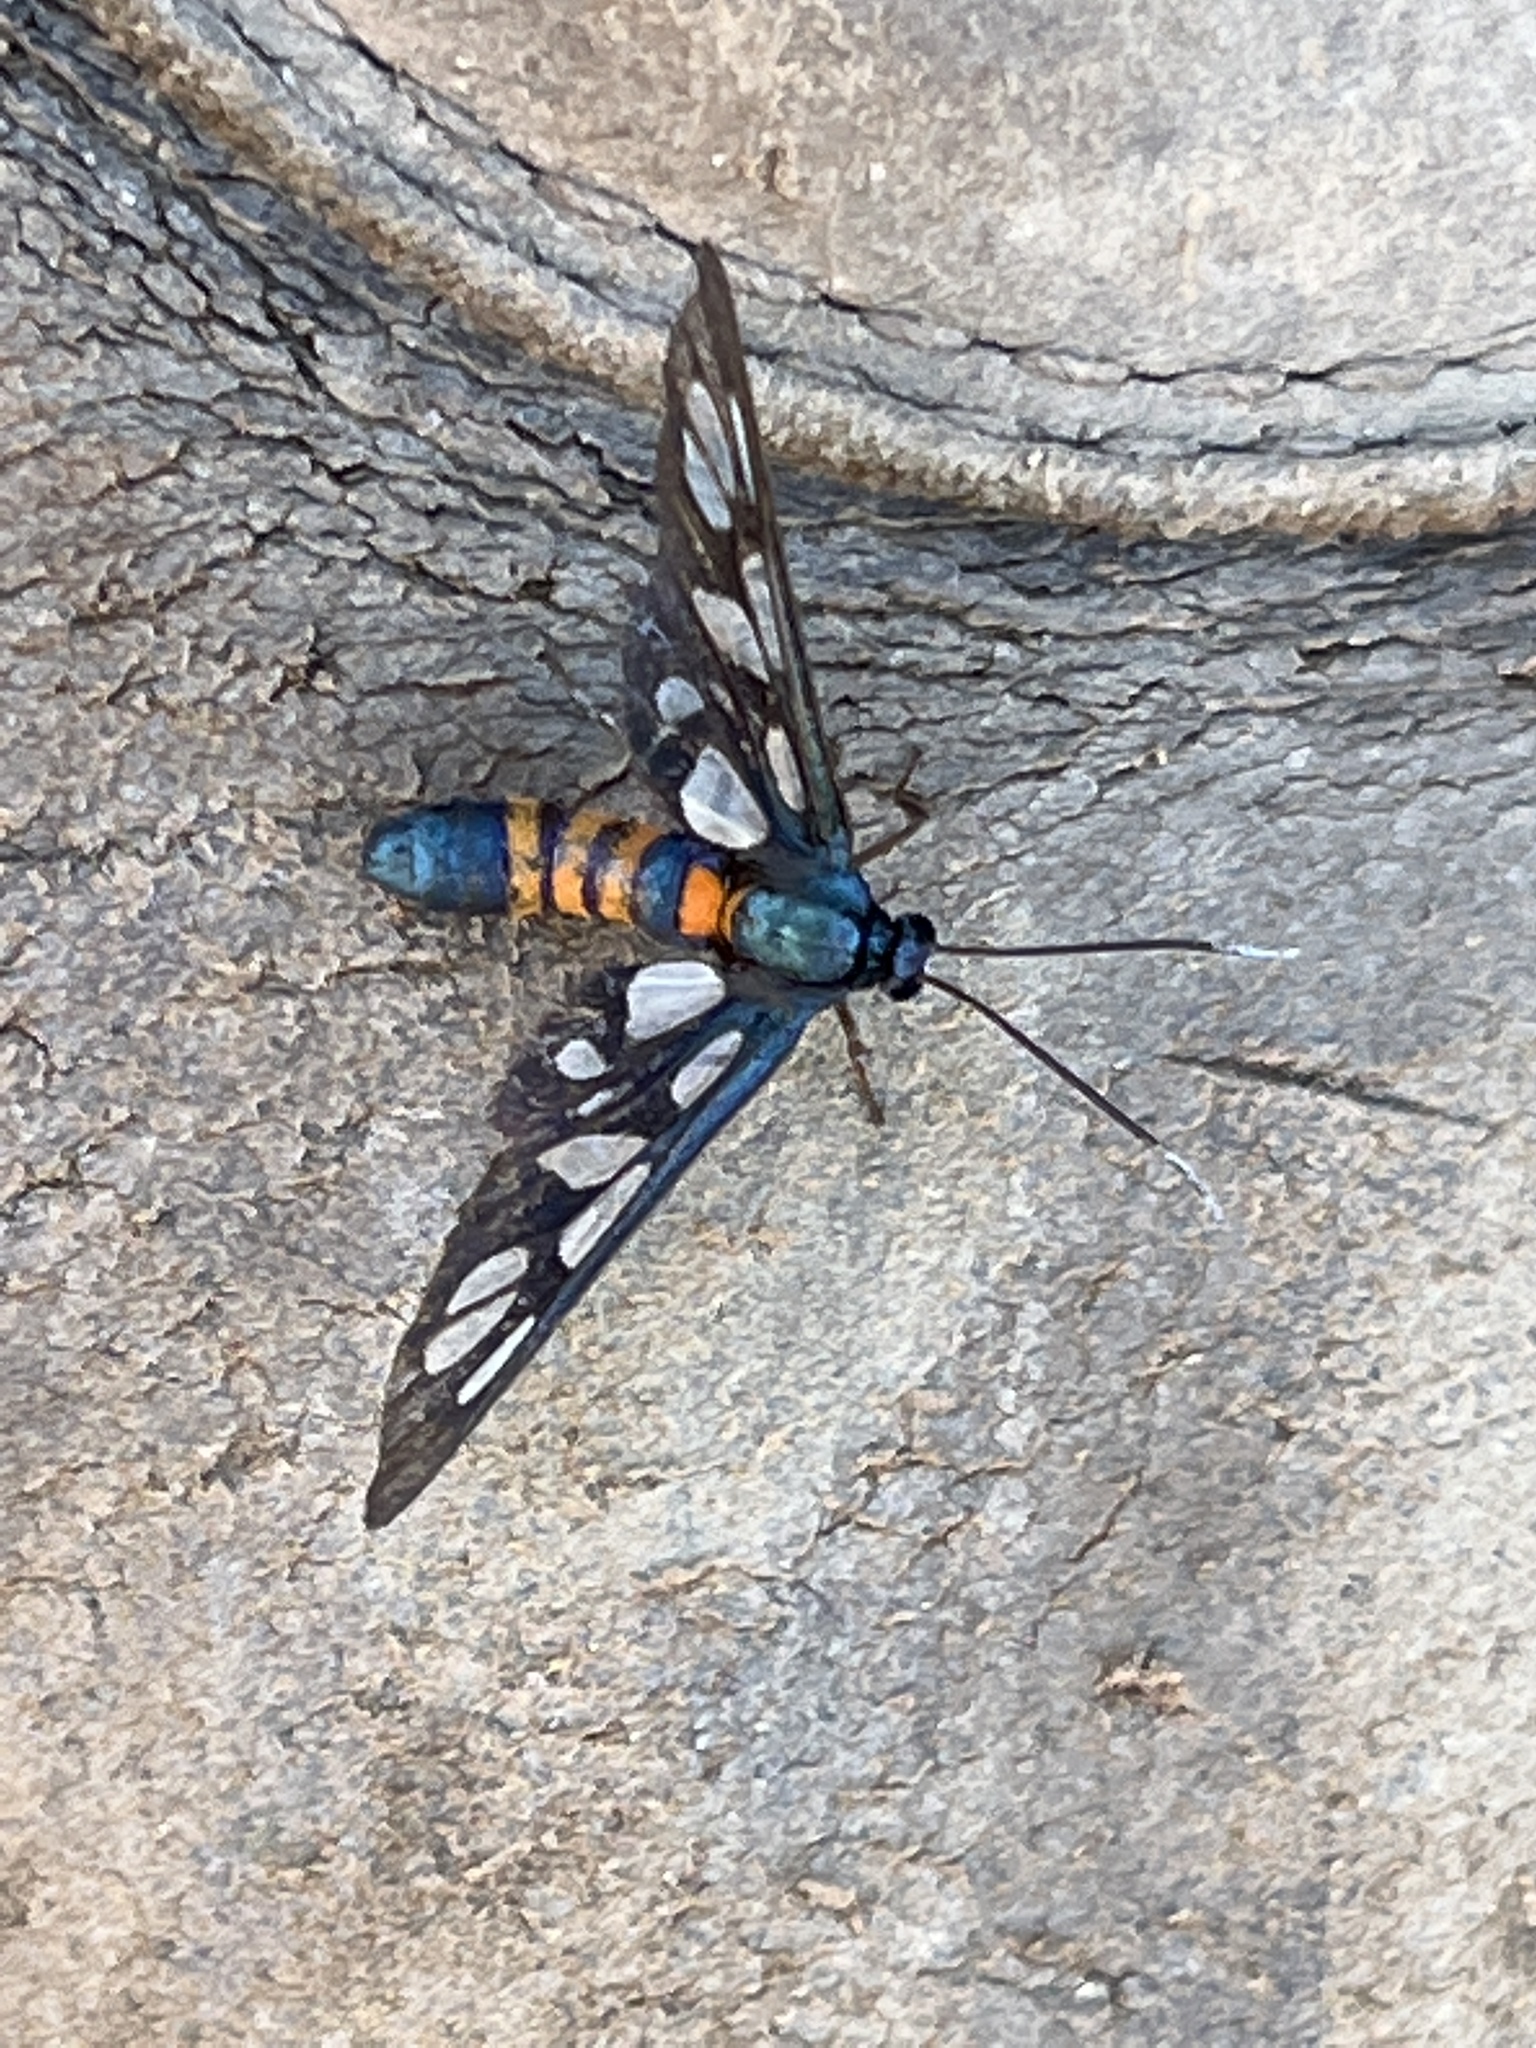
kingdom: Animalia
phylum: Arthropoda
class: Insecta
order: Lepidoptera
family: Erebidae
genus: Amata
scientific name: Amata cerbera
